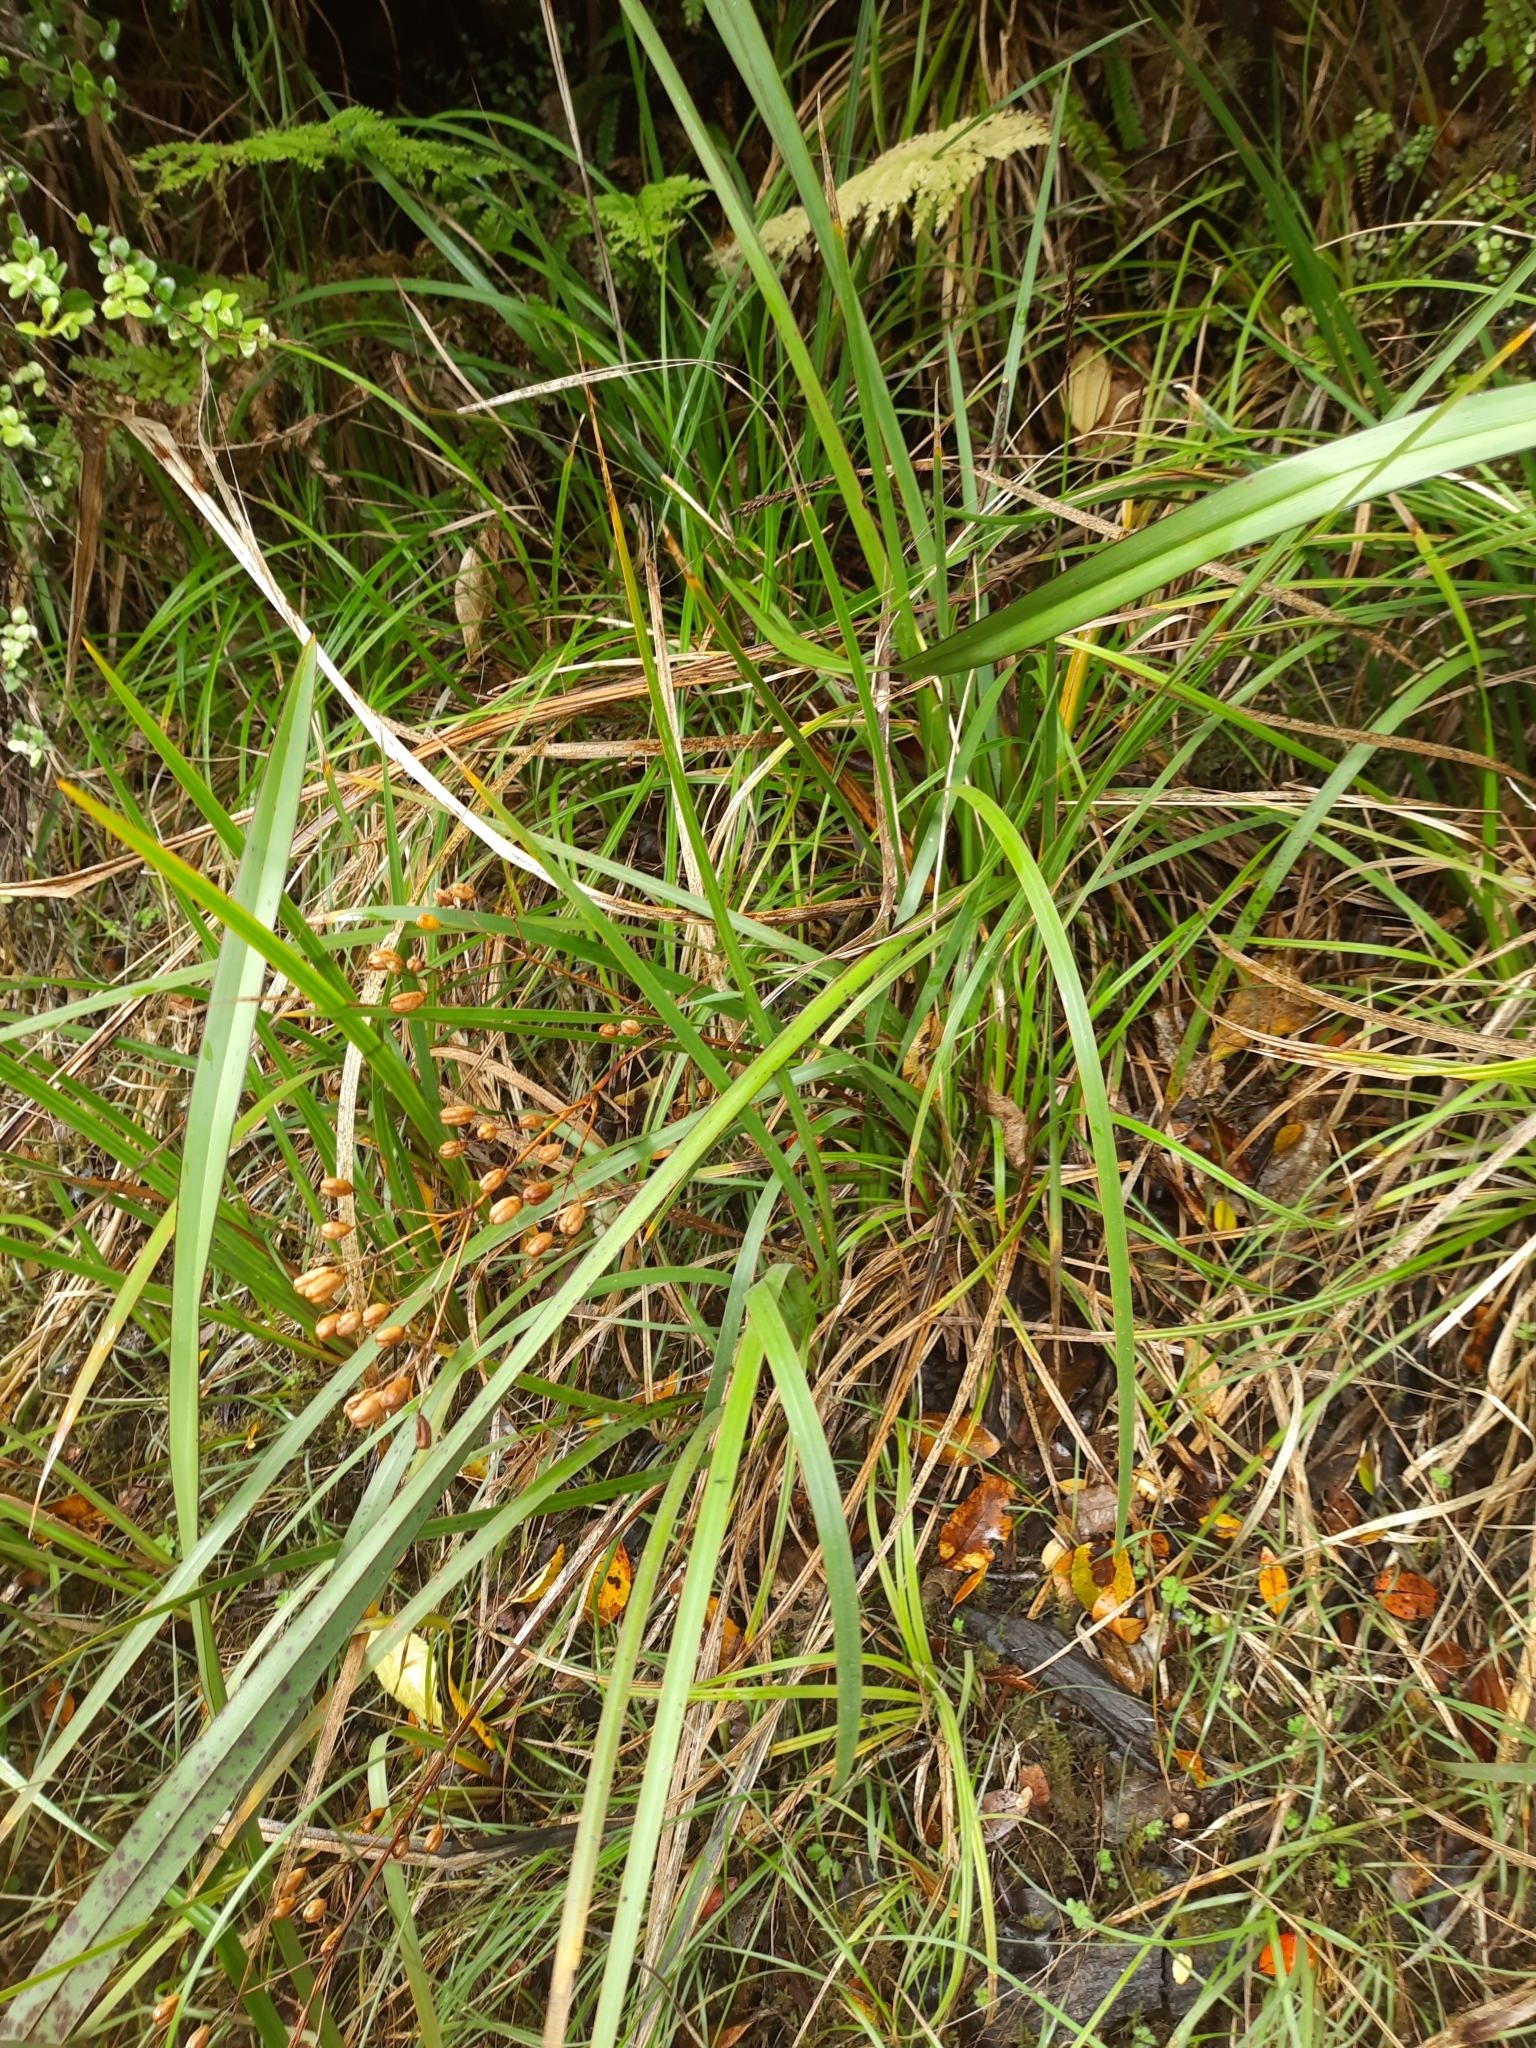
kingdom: Plantae
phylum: Tracheophyta
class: Liliopsida
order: Asparagales
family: Iridaceae
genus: Libertia
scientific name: Libertia peregrinans
